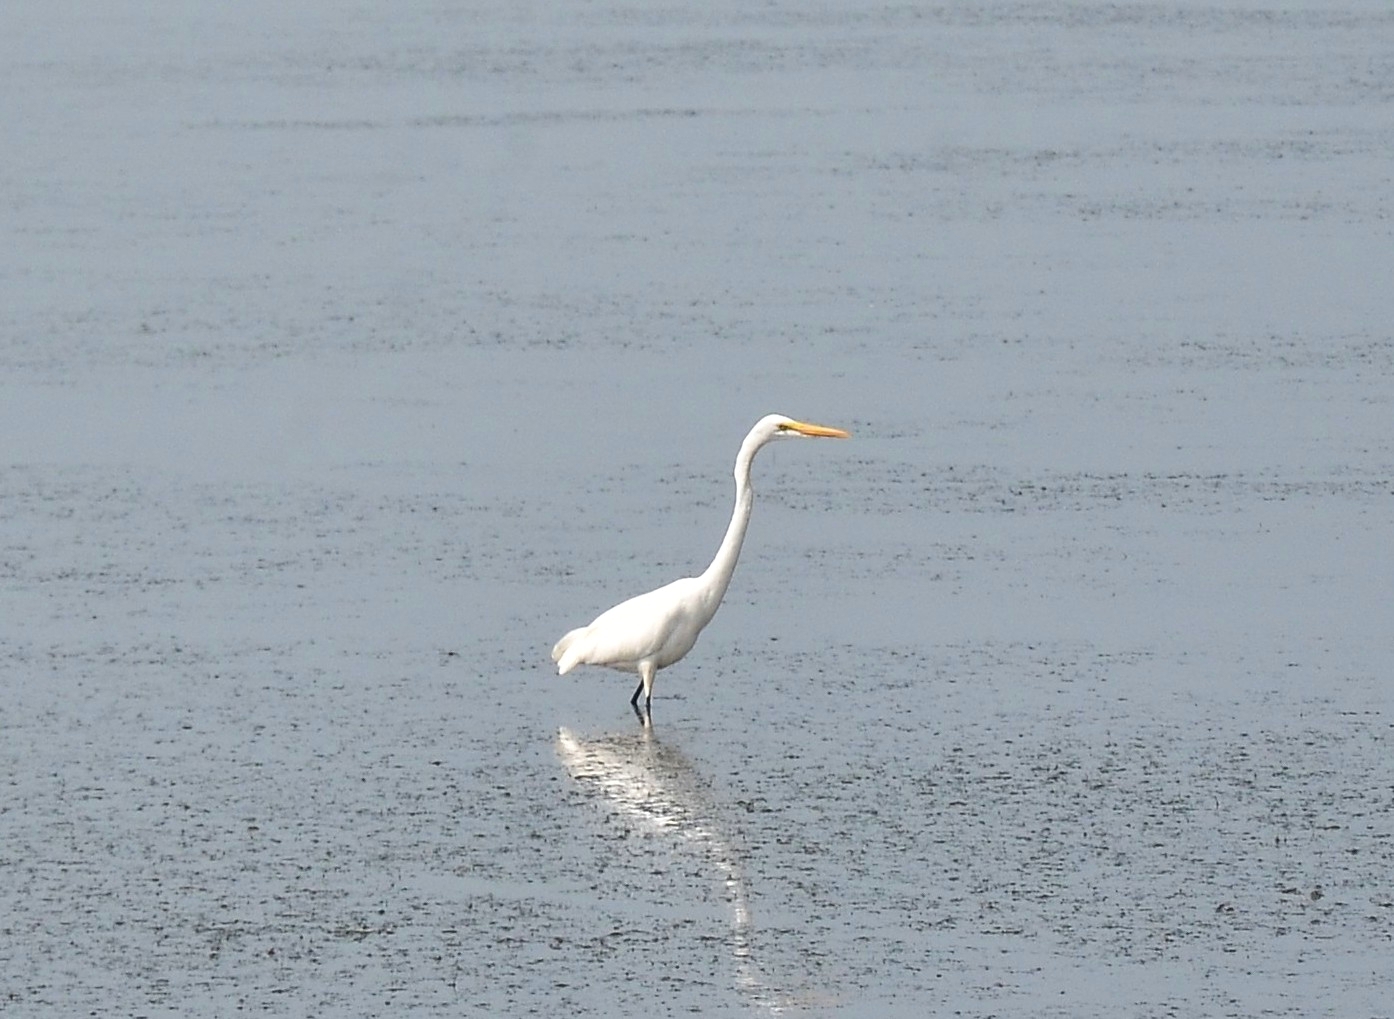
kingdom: Animalia
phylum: Chordata
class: Aves
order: Pelecaniformes
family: Ardeidae
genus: Ardea
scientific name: Ardea alba
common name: Great egret
